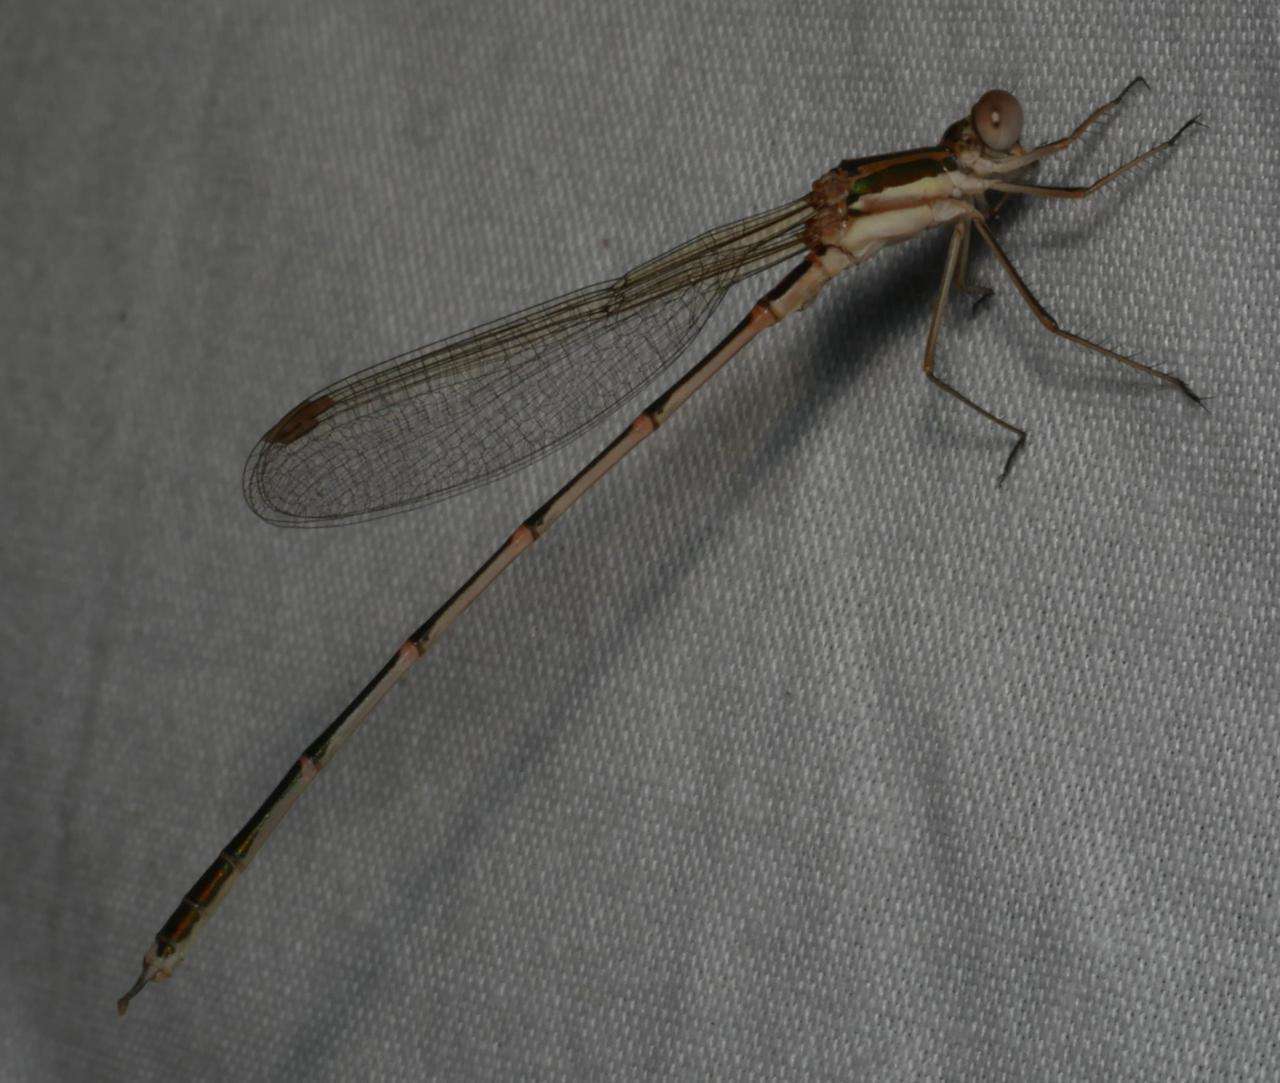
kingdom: Animalia
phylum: Arthropoda
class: Insecta
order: Odonata
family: Lestidae
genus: Austrolestes
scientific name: Austrolestes analis
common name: Slender ringtail
